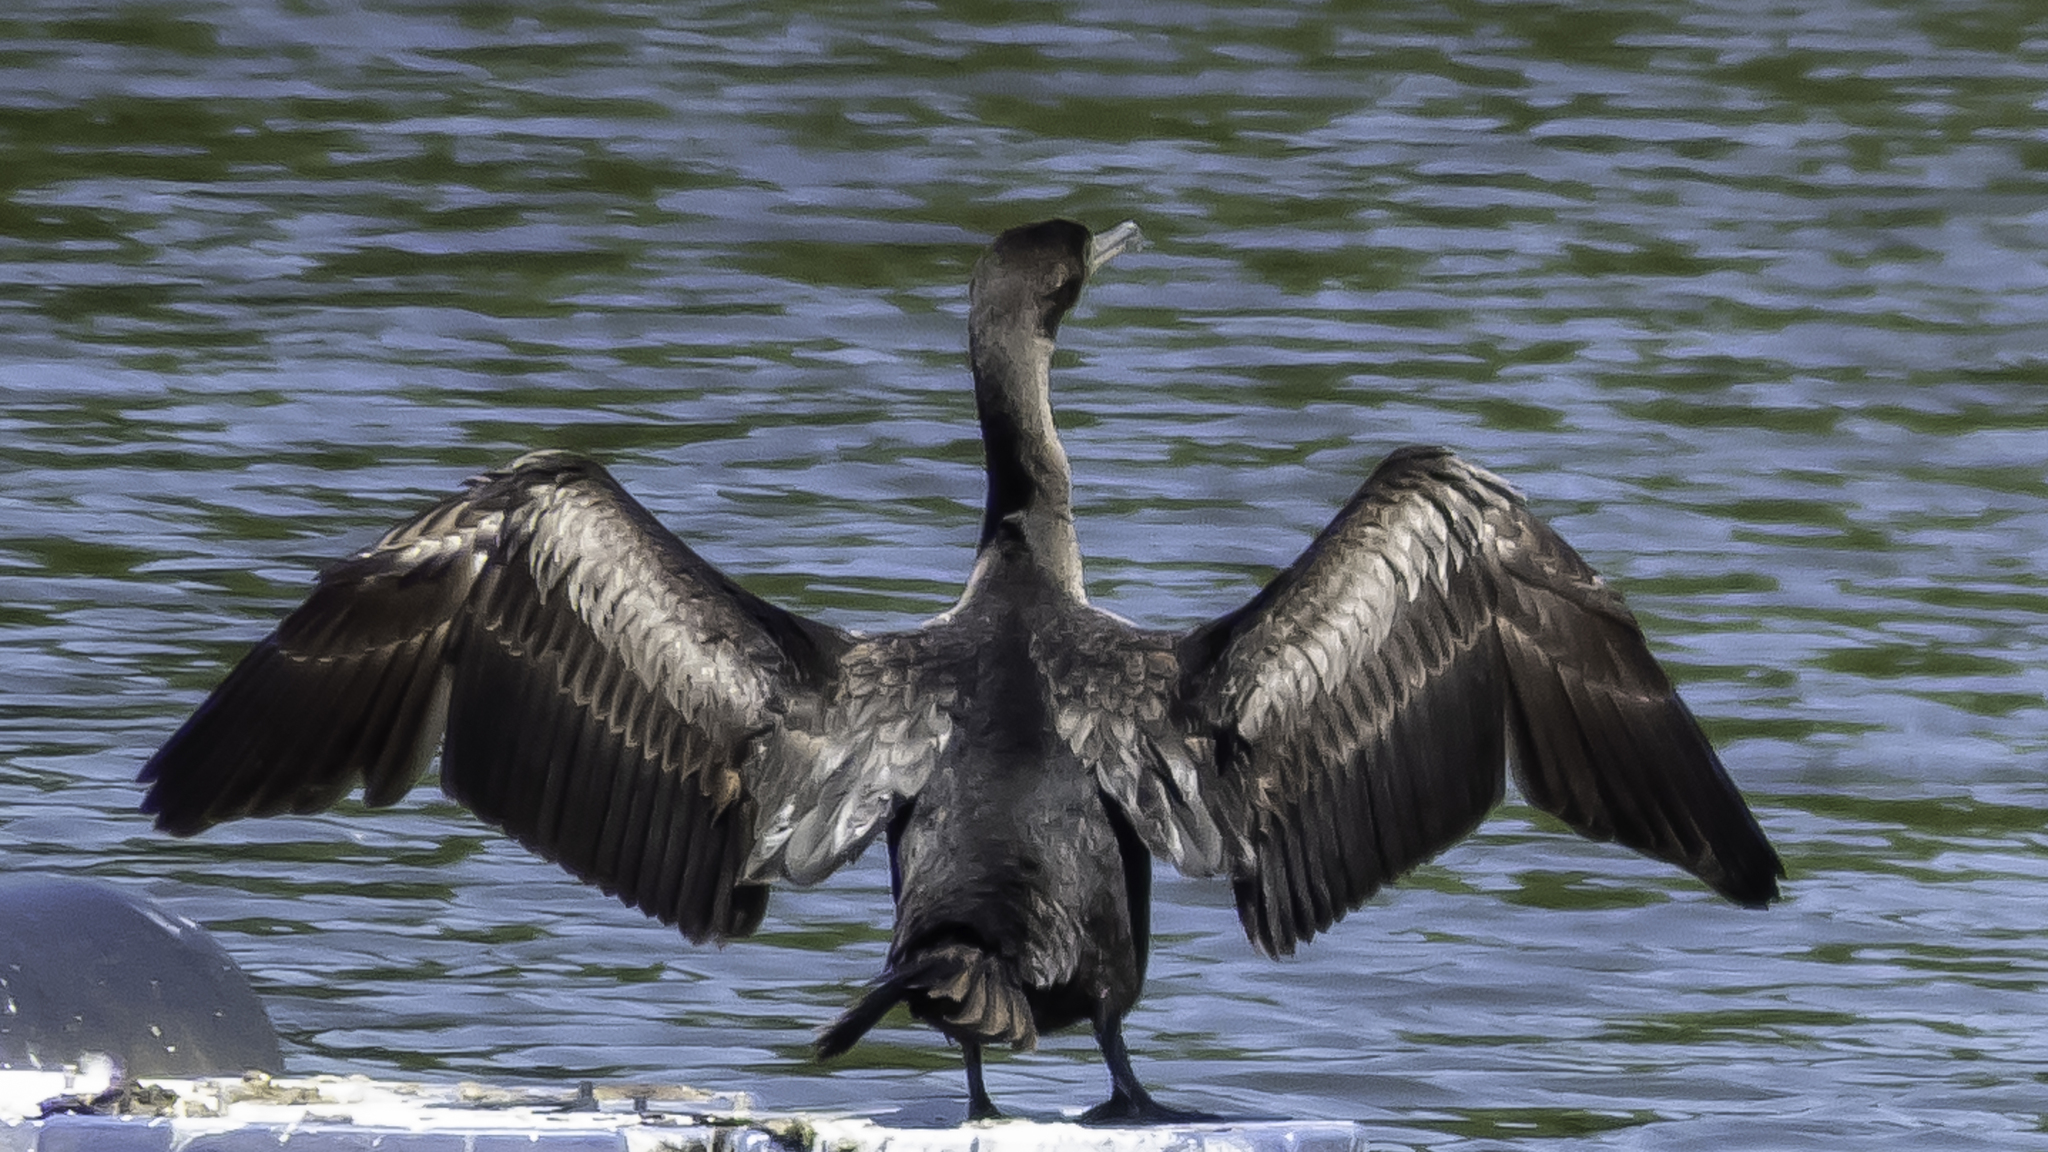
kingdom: Animalia
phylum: Chordata
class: Aves
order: Suliformes
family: Phalacrocoracidae
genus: Phalacrocorax
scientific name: Phalacrocorax auritus
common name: Double-crested cormorant
